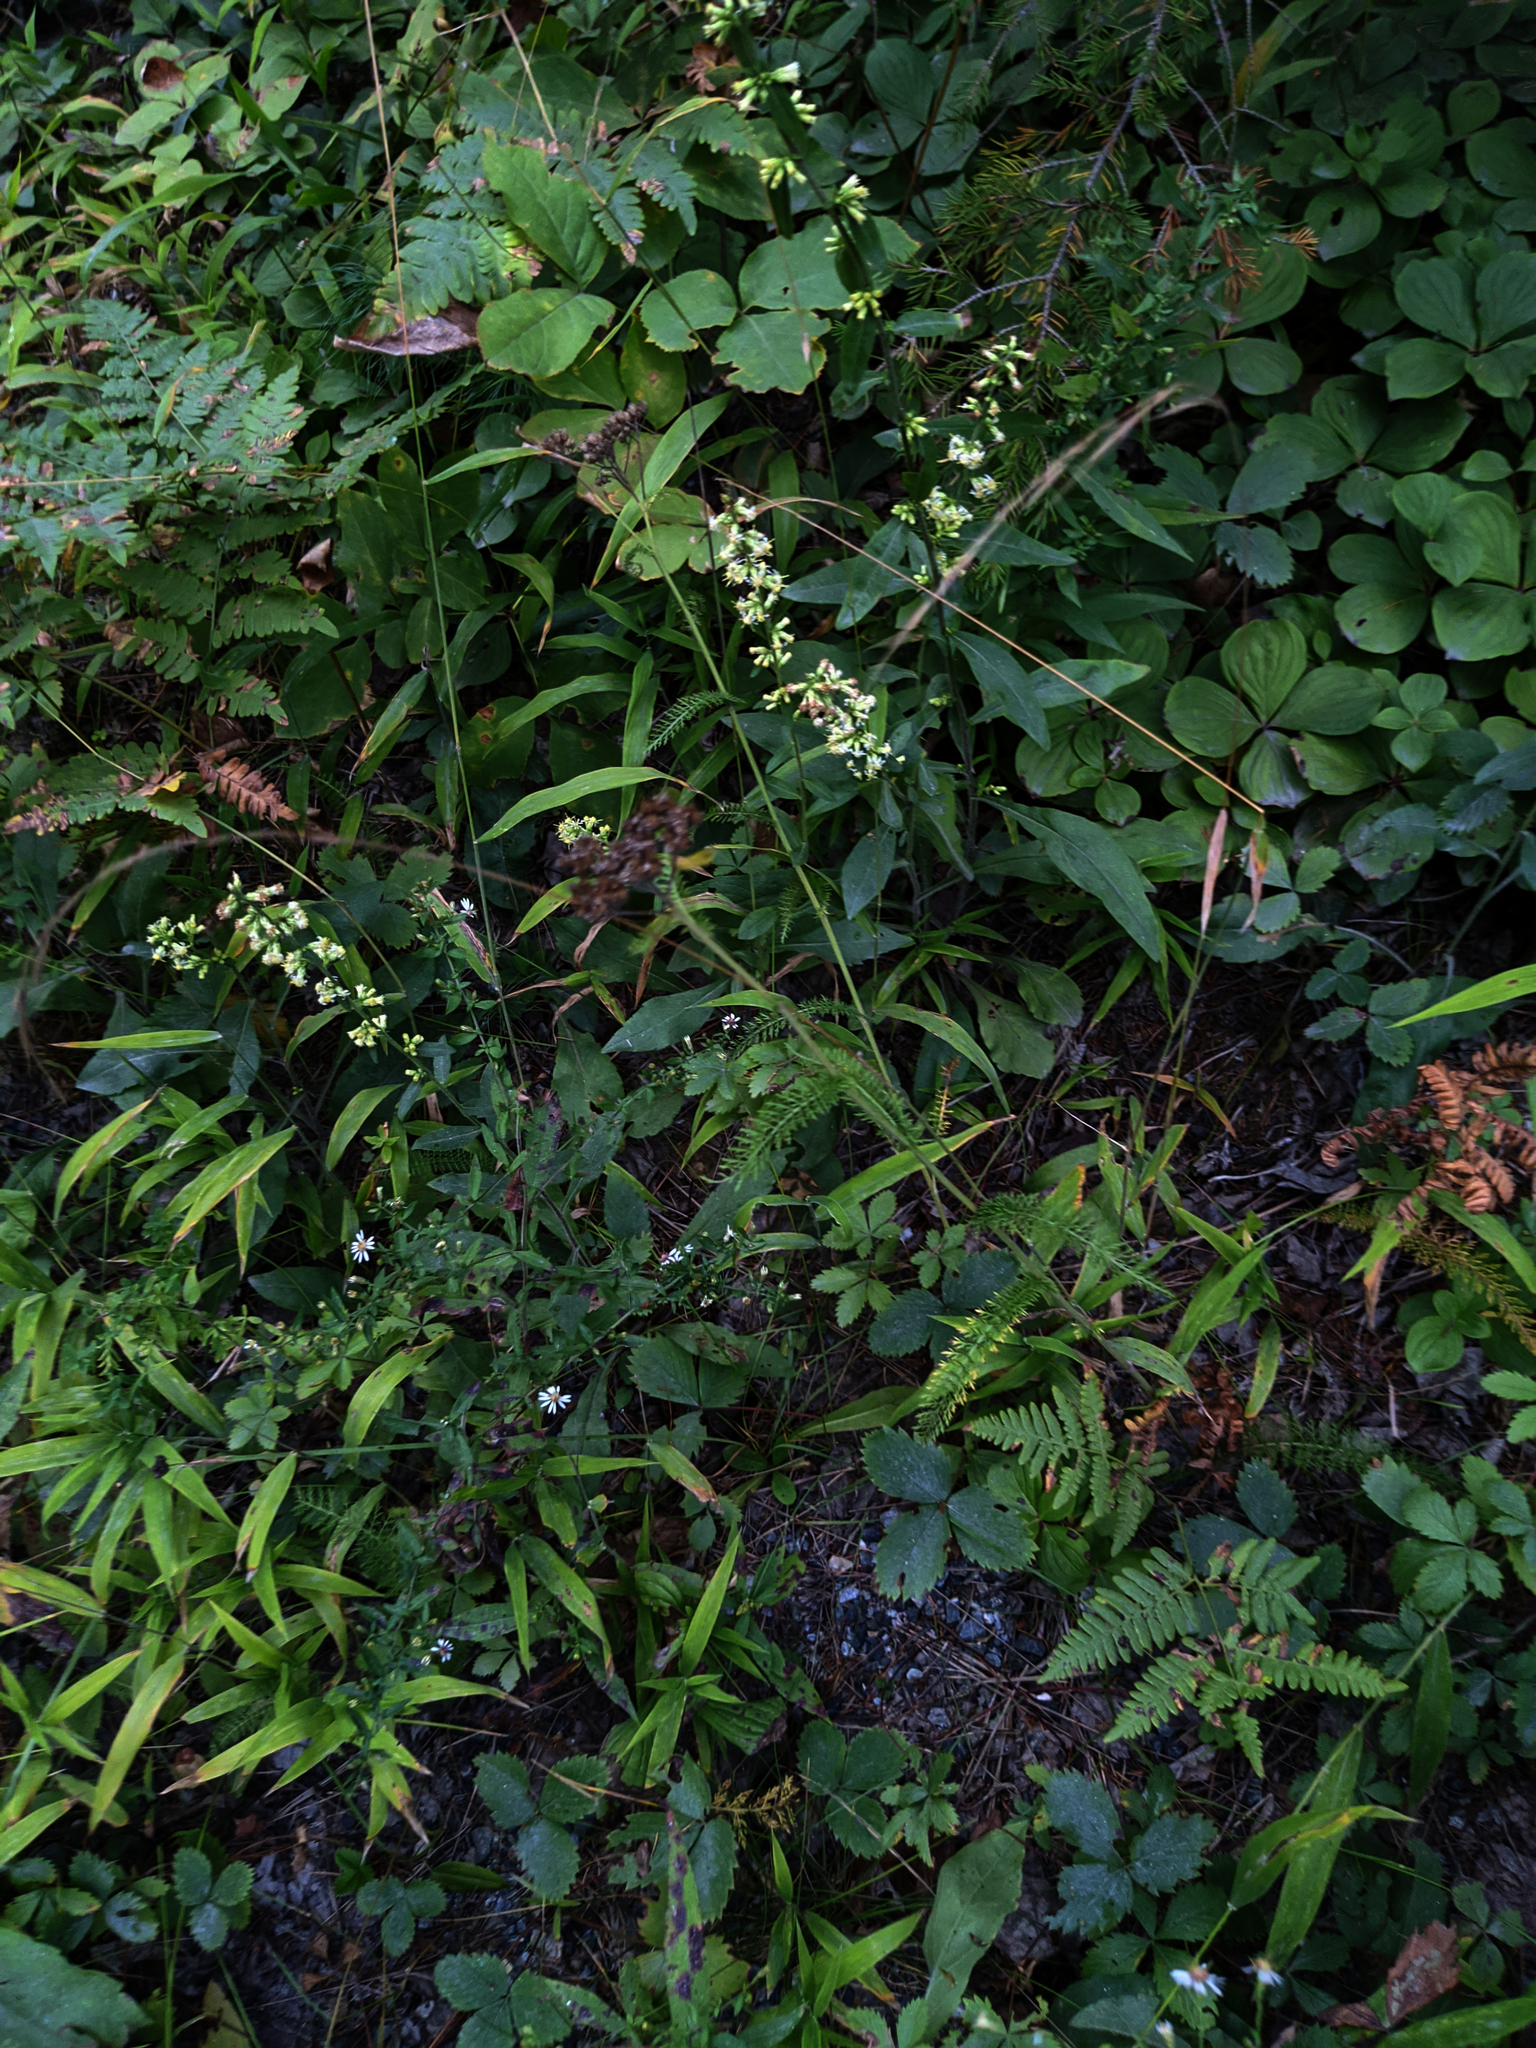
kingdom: Plantae
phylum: Tracheophyta
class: Magnoliopsida
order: Asterales
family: Asteraceae
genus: Achillea
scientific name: Achillea millefolium
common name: Yarrow
